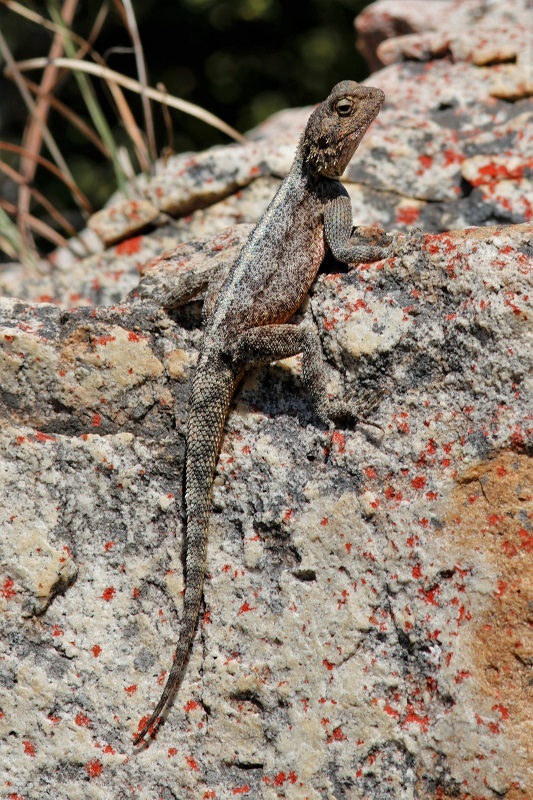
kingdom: Animalia
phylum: Chordata
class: Squamata
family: Agamidae
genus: Agama
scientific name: Agama atra
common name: Southern african rock agama
